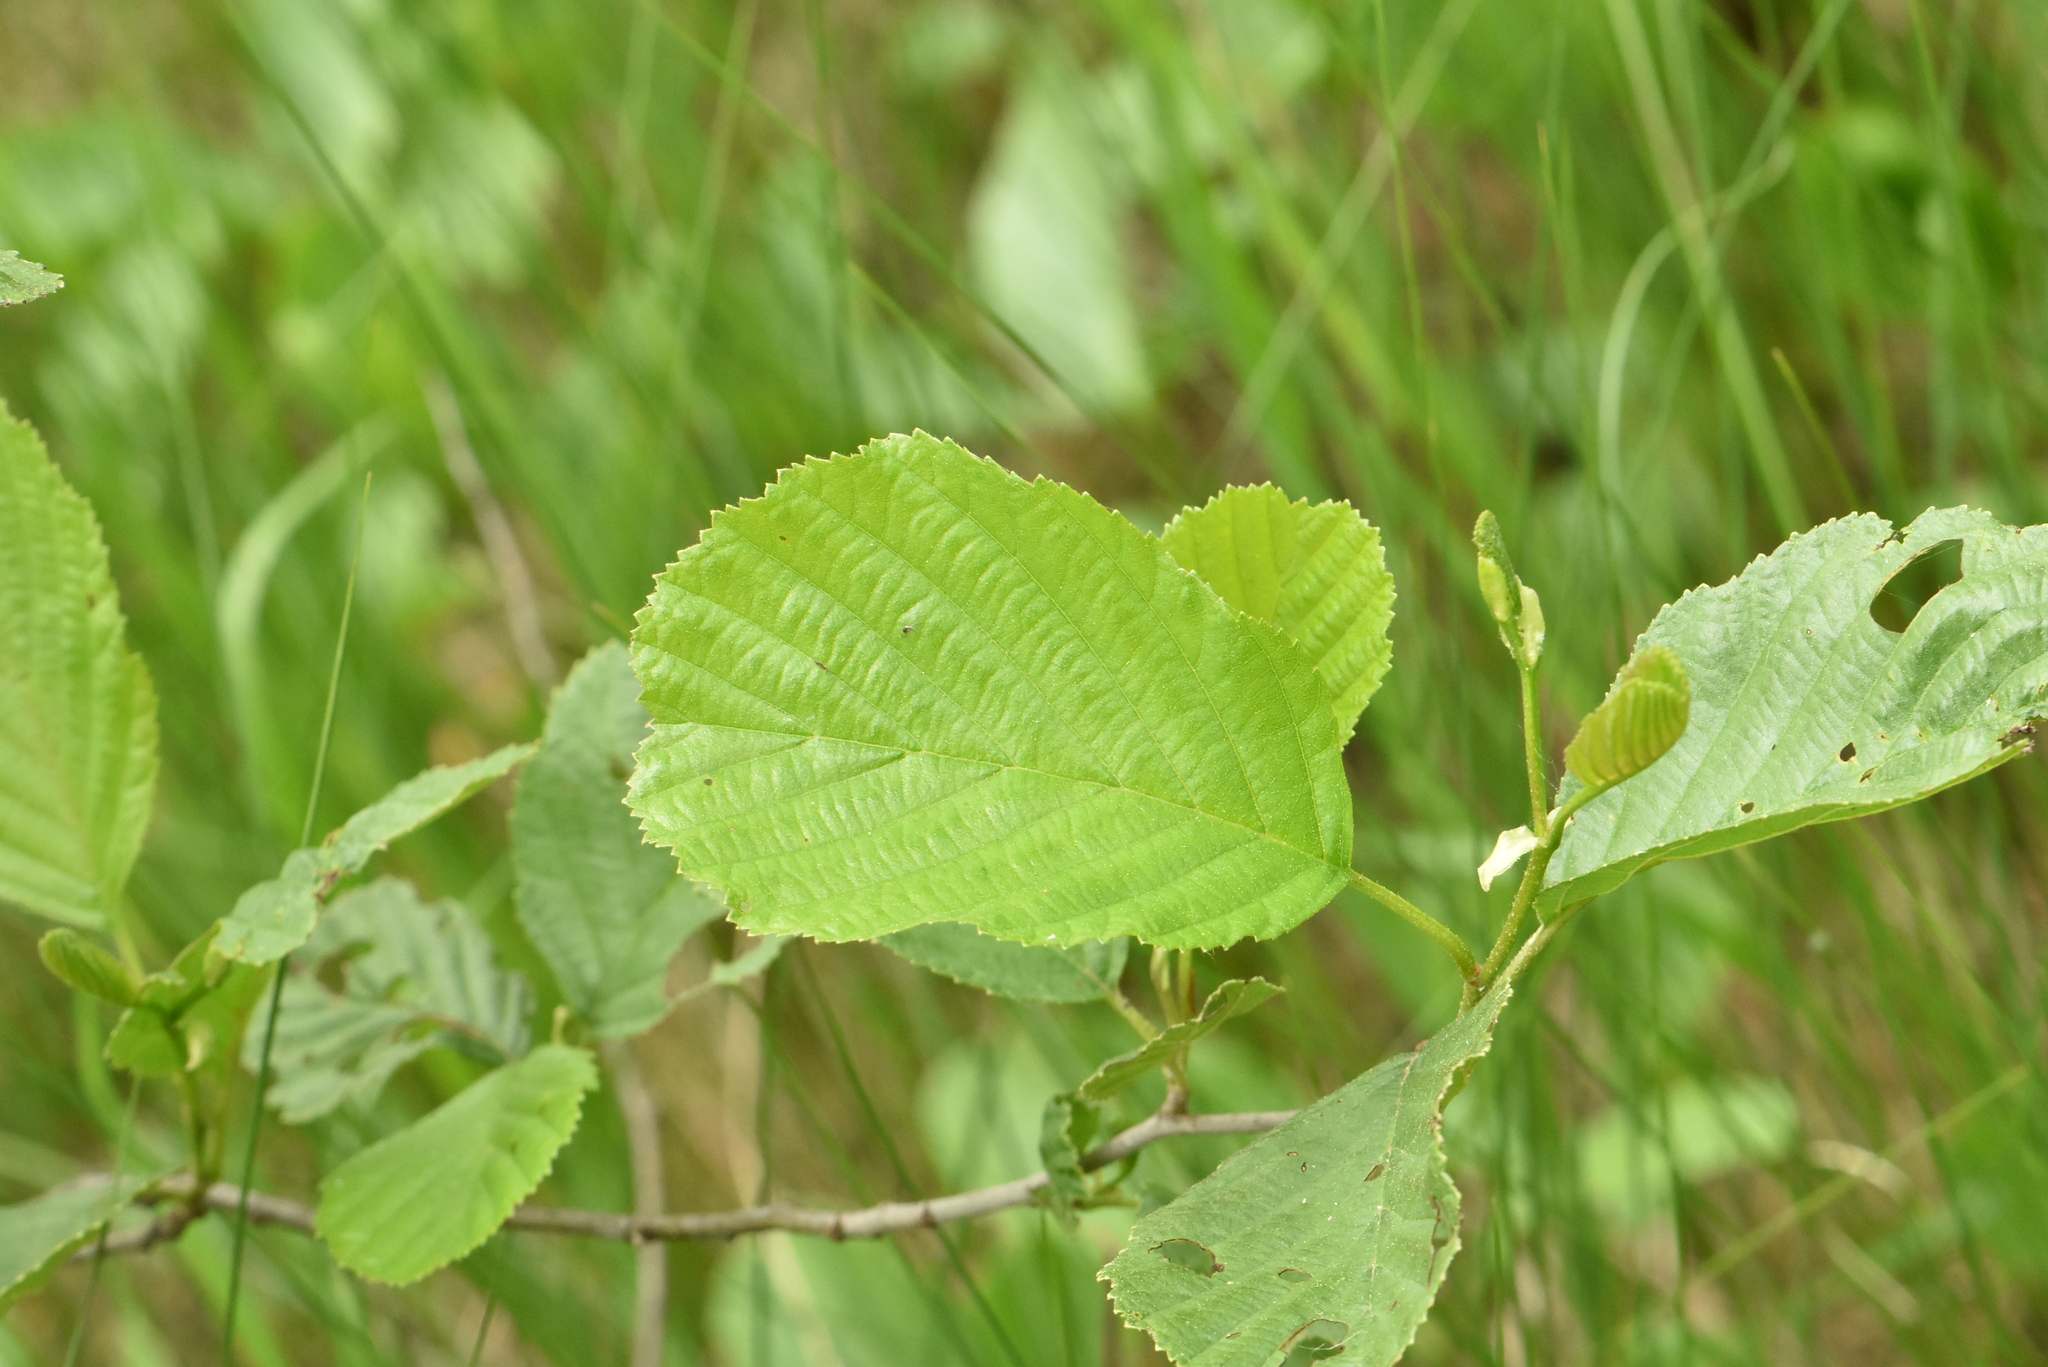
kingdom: Plantae
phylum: Tracheophyta
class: Magnoliopsida
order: Fagales
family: Betulaceae
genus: Alnus
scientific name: Alnus glutinosa
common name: Black alder
